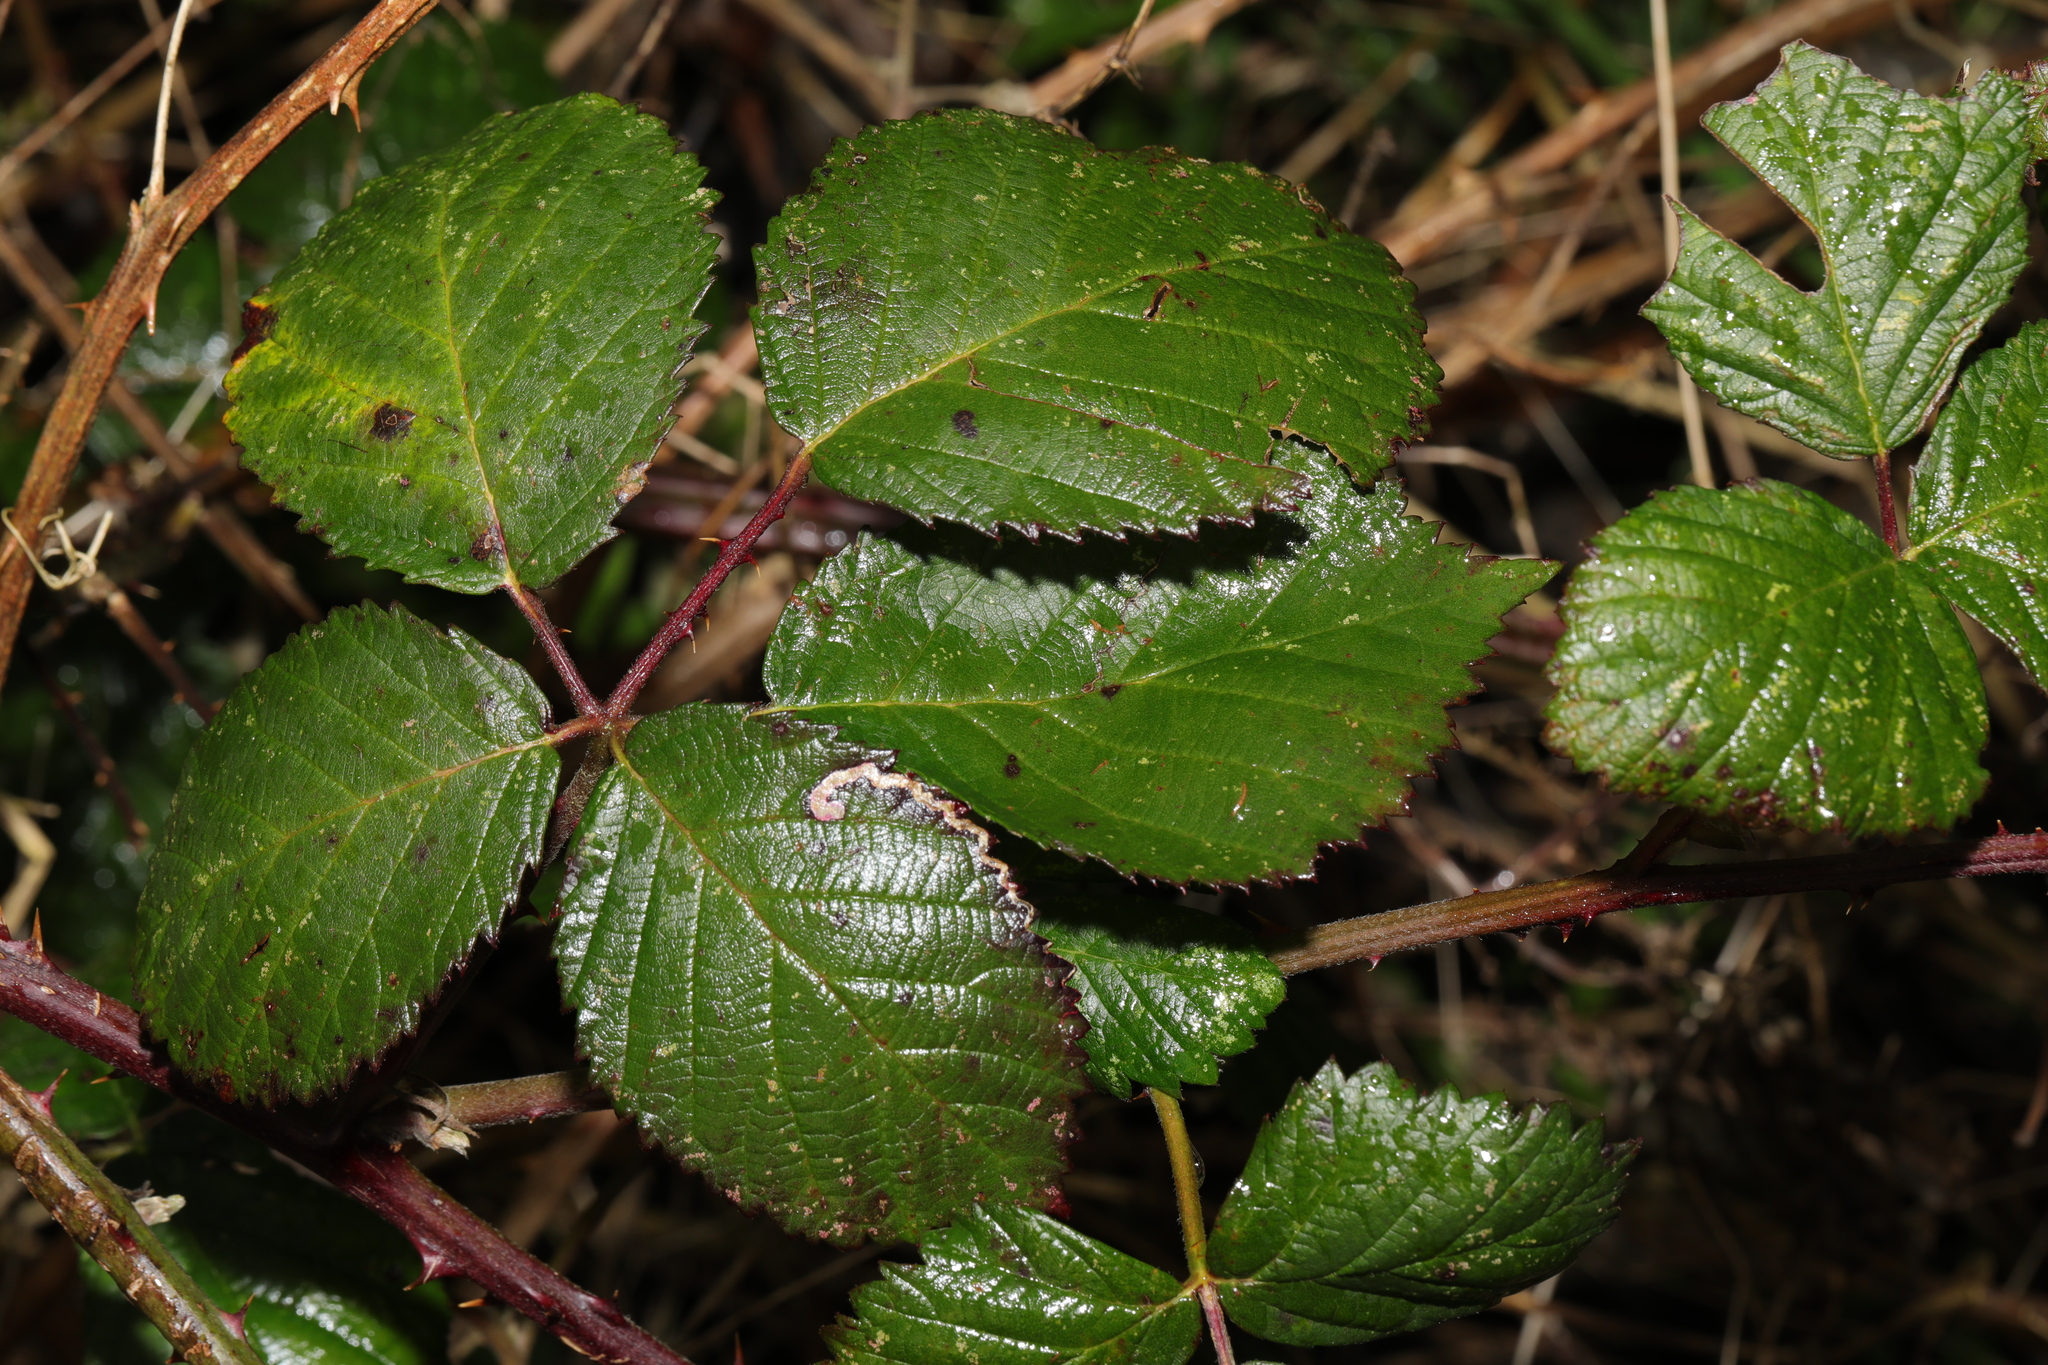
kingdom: Plantae
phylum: Tracheophyta
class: Magnoliopsida
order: Rosales
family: Rosaceae
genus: Rubus
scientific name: Rubus armeniacus
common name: Himalayan blackberry
